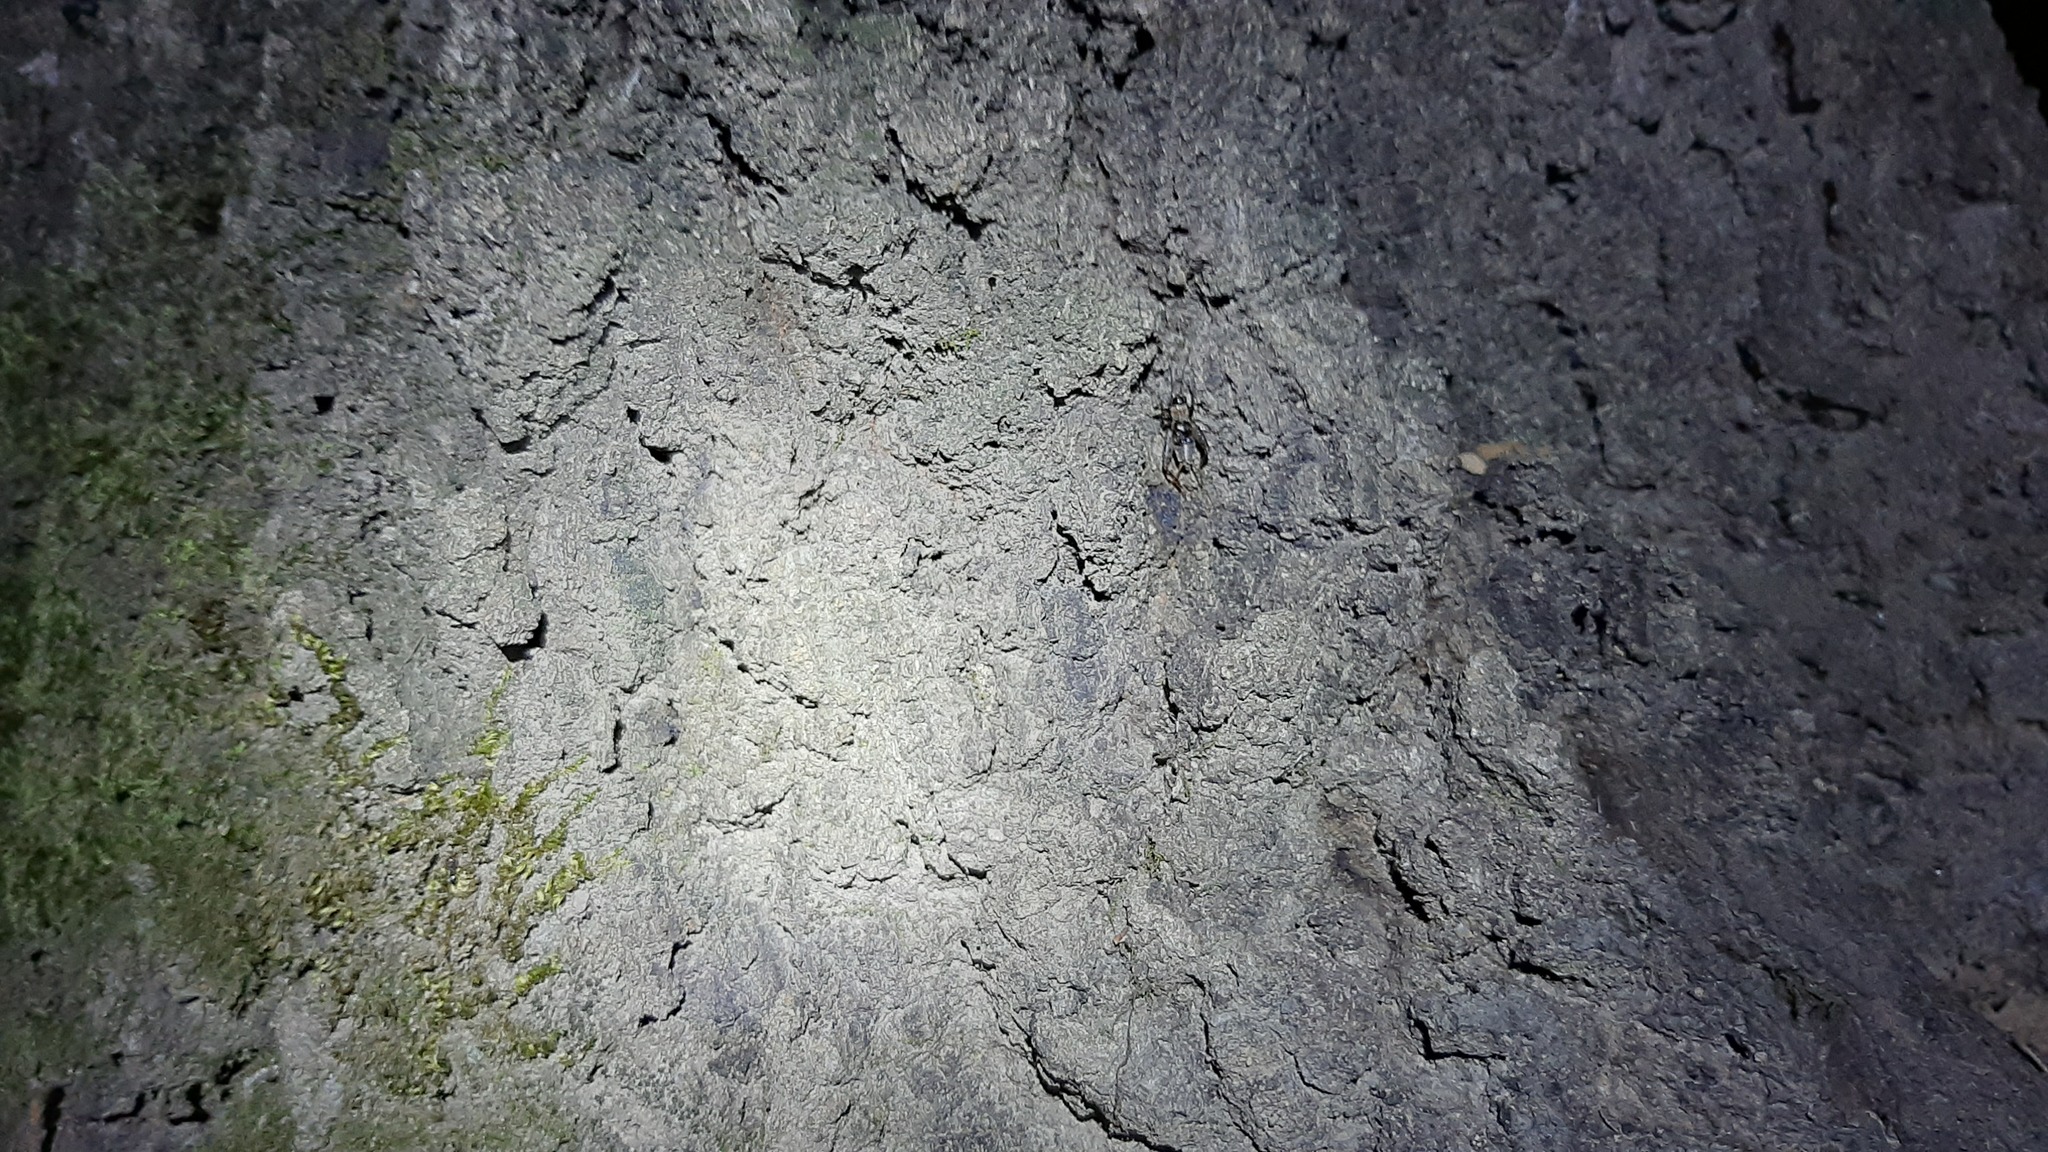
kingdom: Animalia
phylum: Arthropoda
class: Insecta
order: Orthoptera
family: Trigonidiidae
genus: Nemobius
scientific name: Nemobius sylvestris
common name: Wood-cricket
